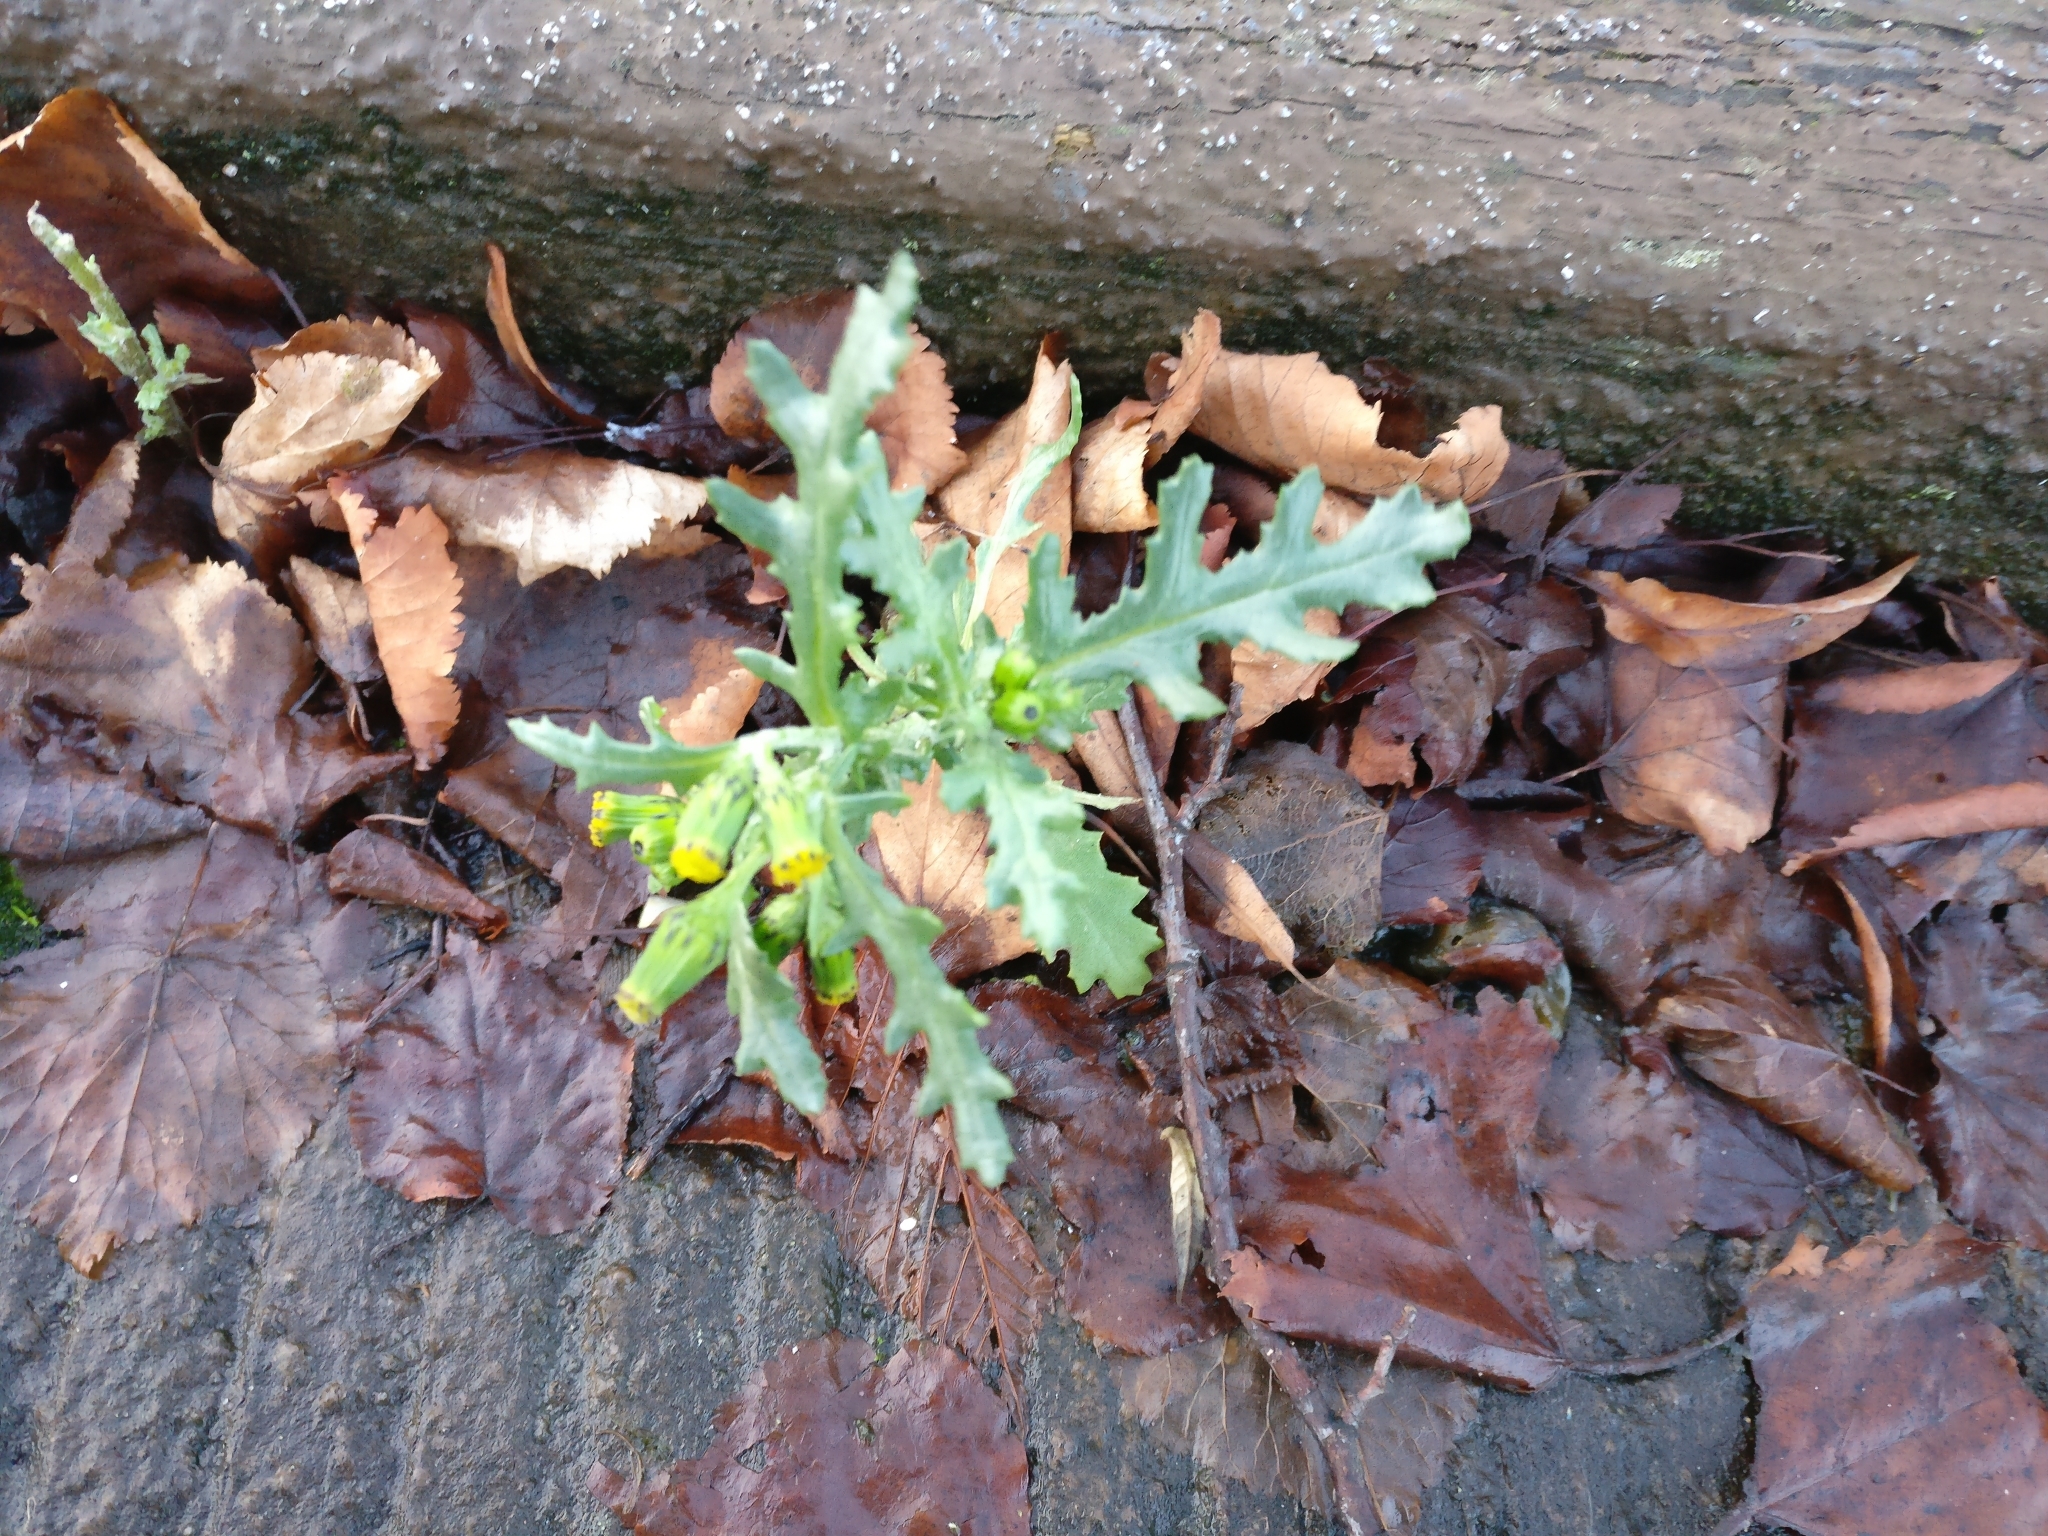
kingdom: Plantae
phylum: Tracheophyta
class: Magnoliopsida
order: Asterales
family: Asteraceae
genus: Senecio
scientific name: Senecio vulgaris
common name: Old-man-in-the-spring
